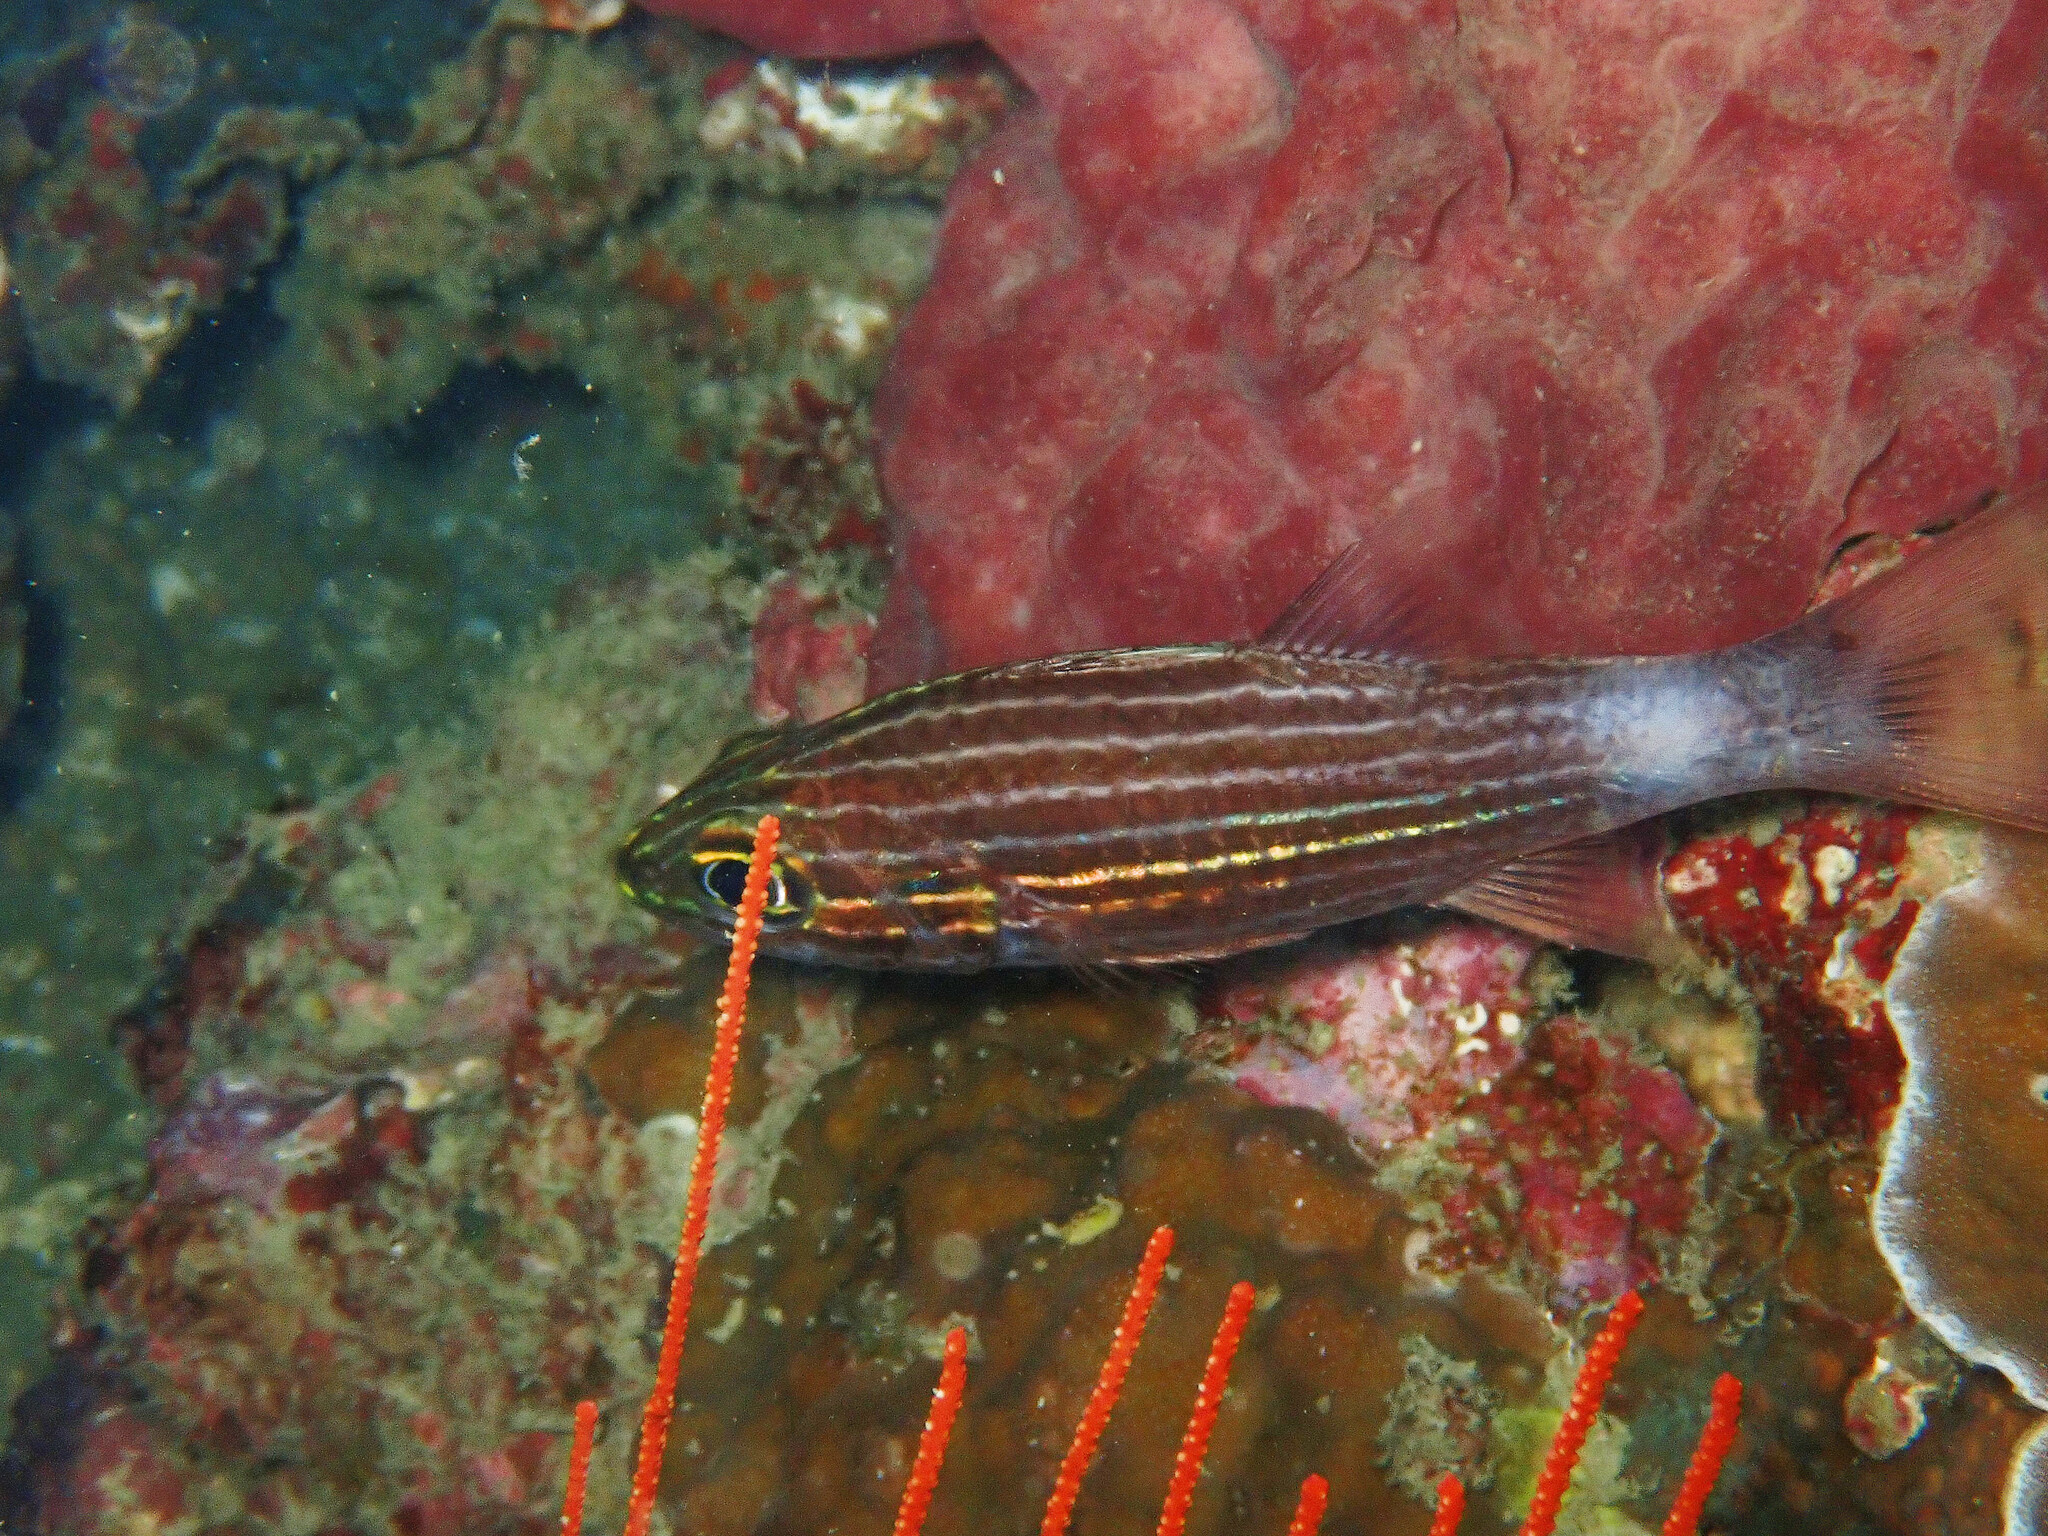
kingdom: Animalia
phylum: Chordata
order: Perciformes
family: Apogonidae
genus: Cheilodipterus
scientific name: Cheilodipterus macrodon
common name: Eight-lined cardinalfish
